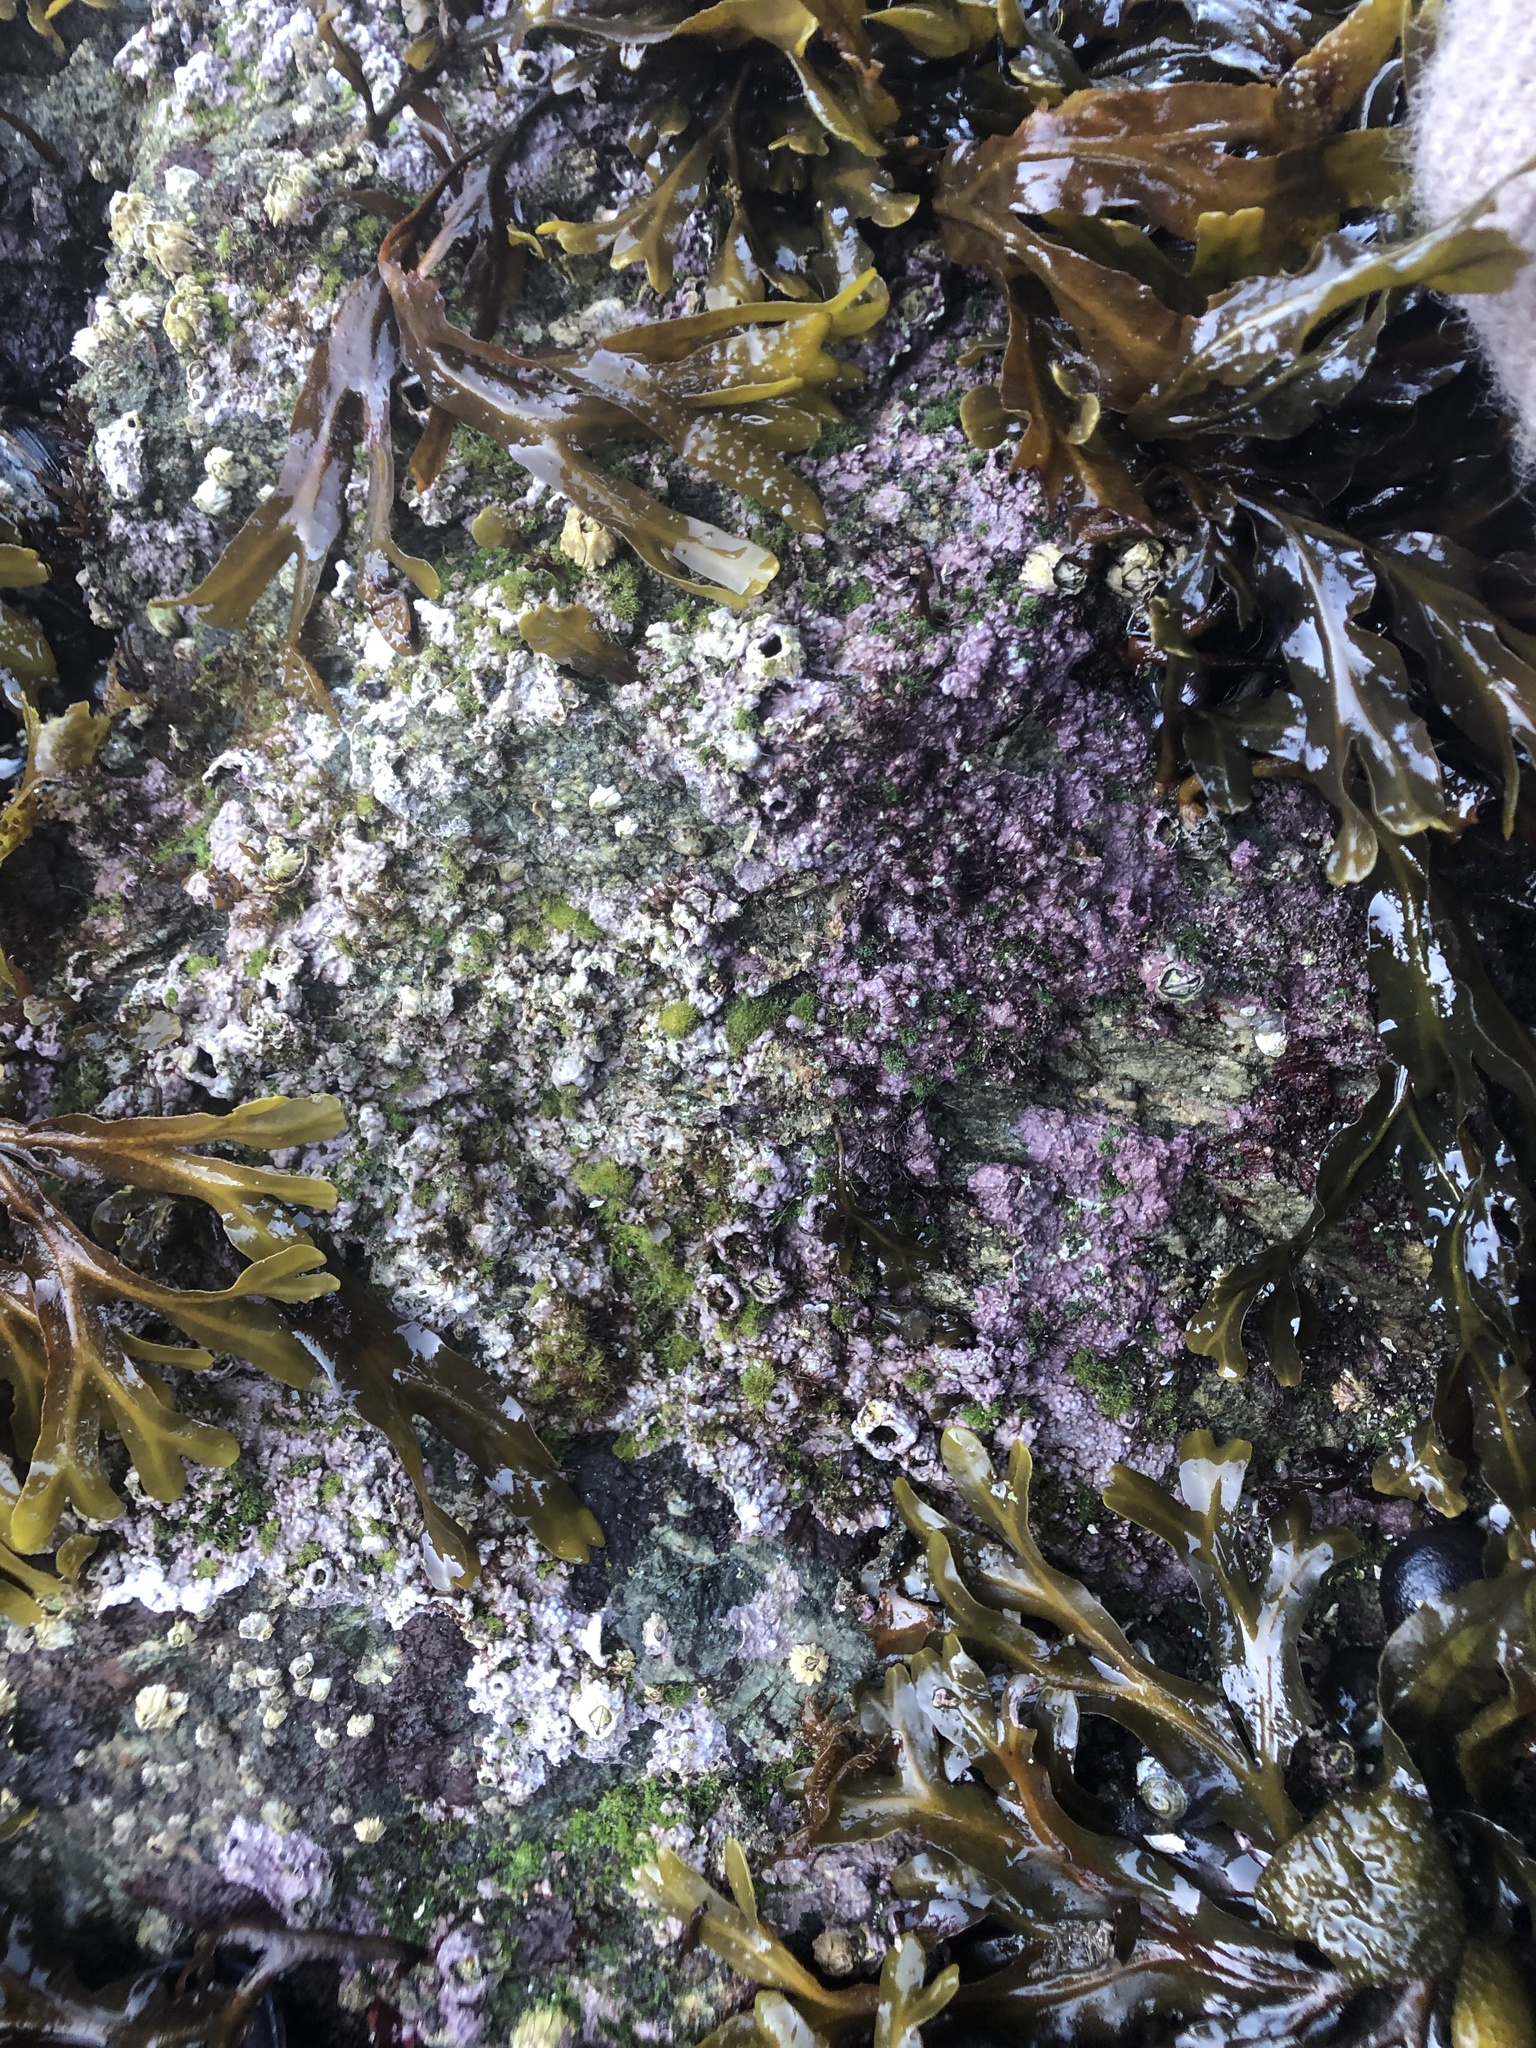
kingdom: Plantae
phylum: Rhodophyta
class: Florideophyceae
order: Corallinales
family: Corallinaceae
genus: Chamberlainium
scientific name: Chamberlainium tumidum
